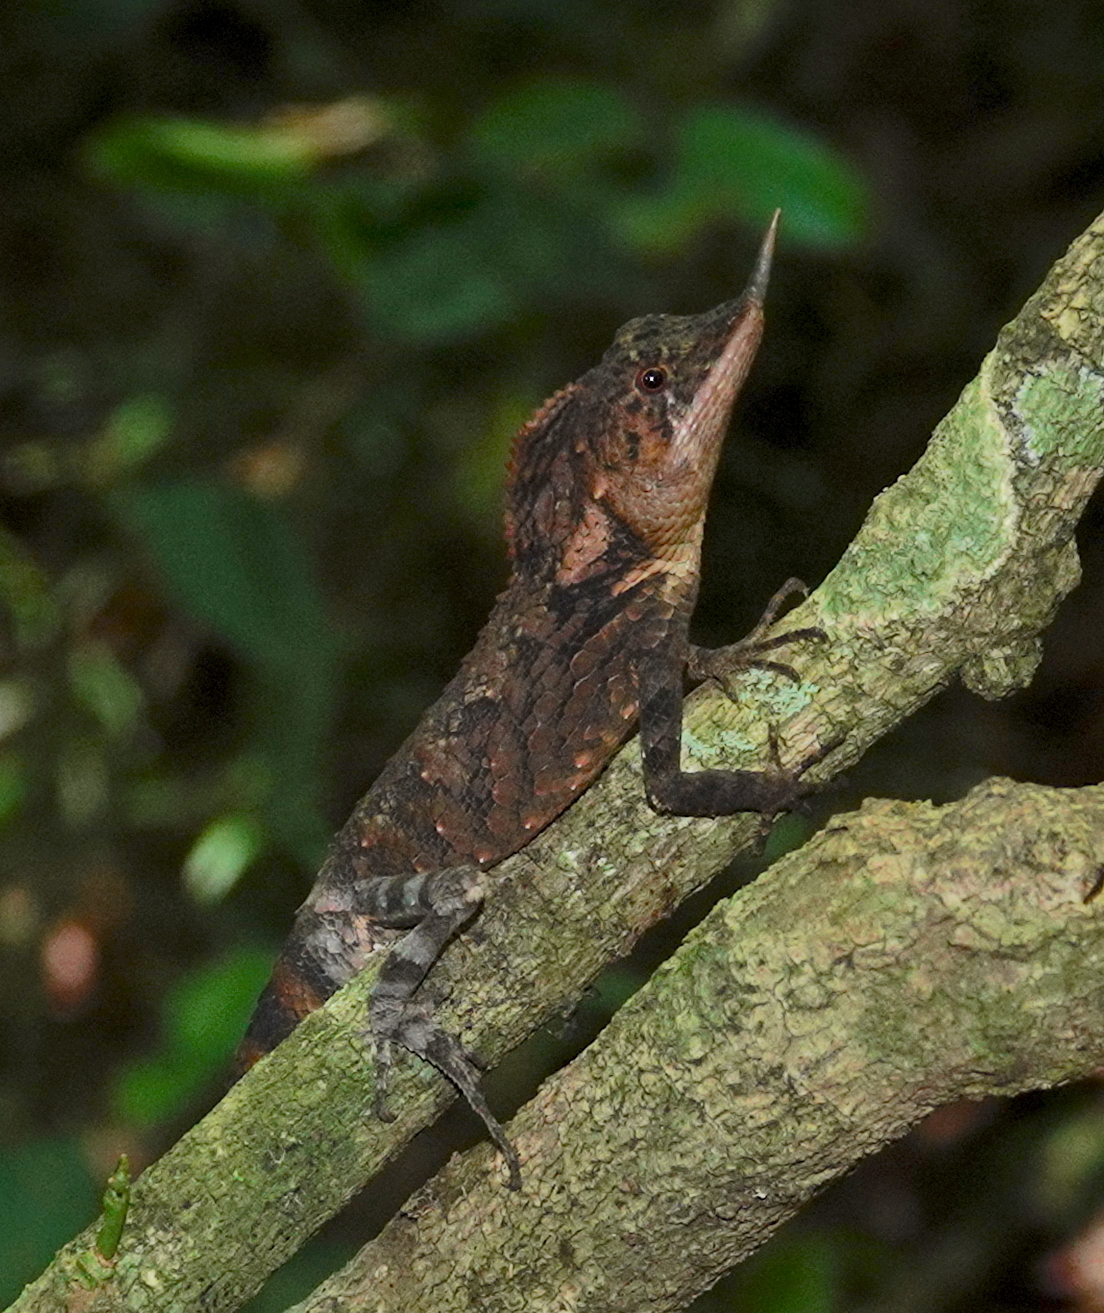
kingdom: Animalia
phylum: Chordata
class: Squamata
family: Agamidae
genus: Ceratophora
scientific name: Ceratophora stoddartii
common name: Mountain horned agama
